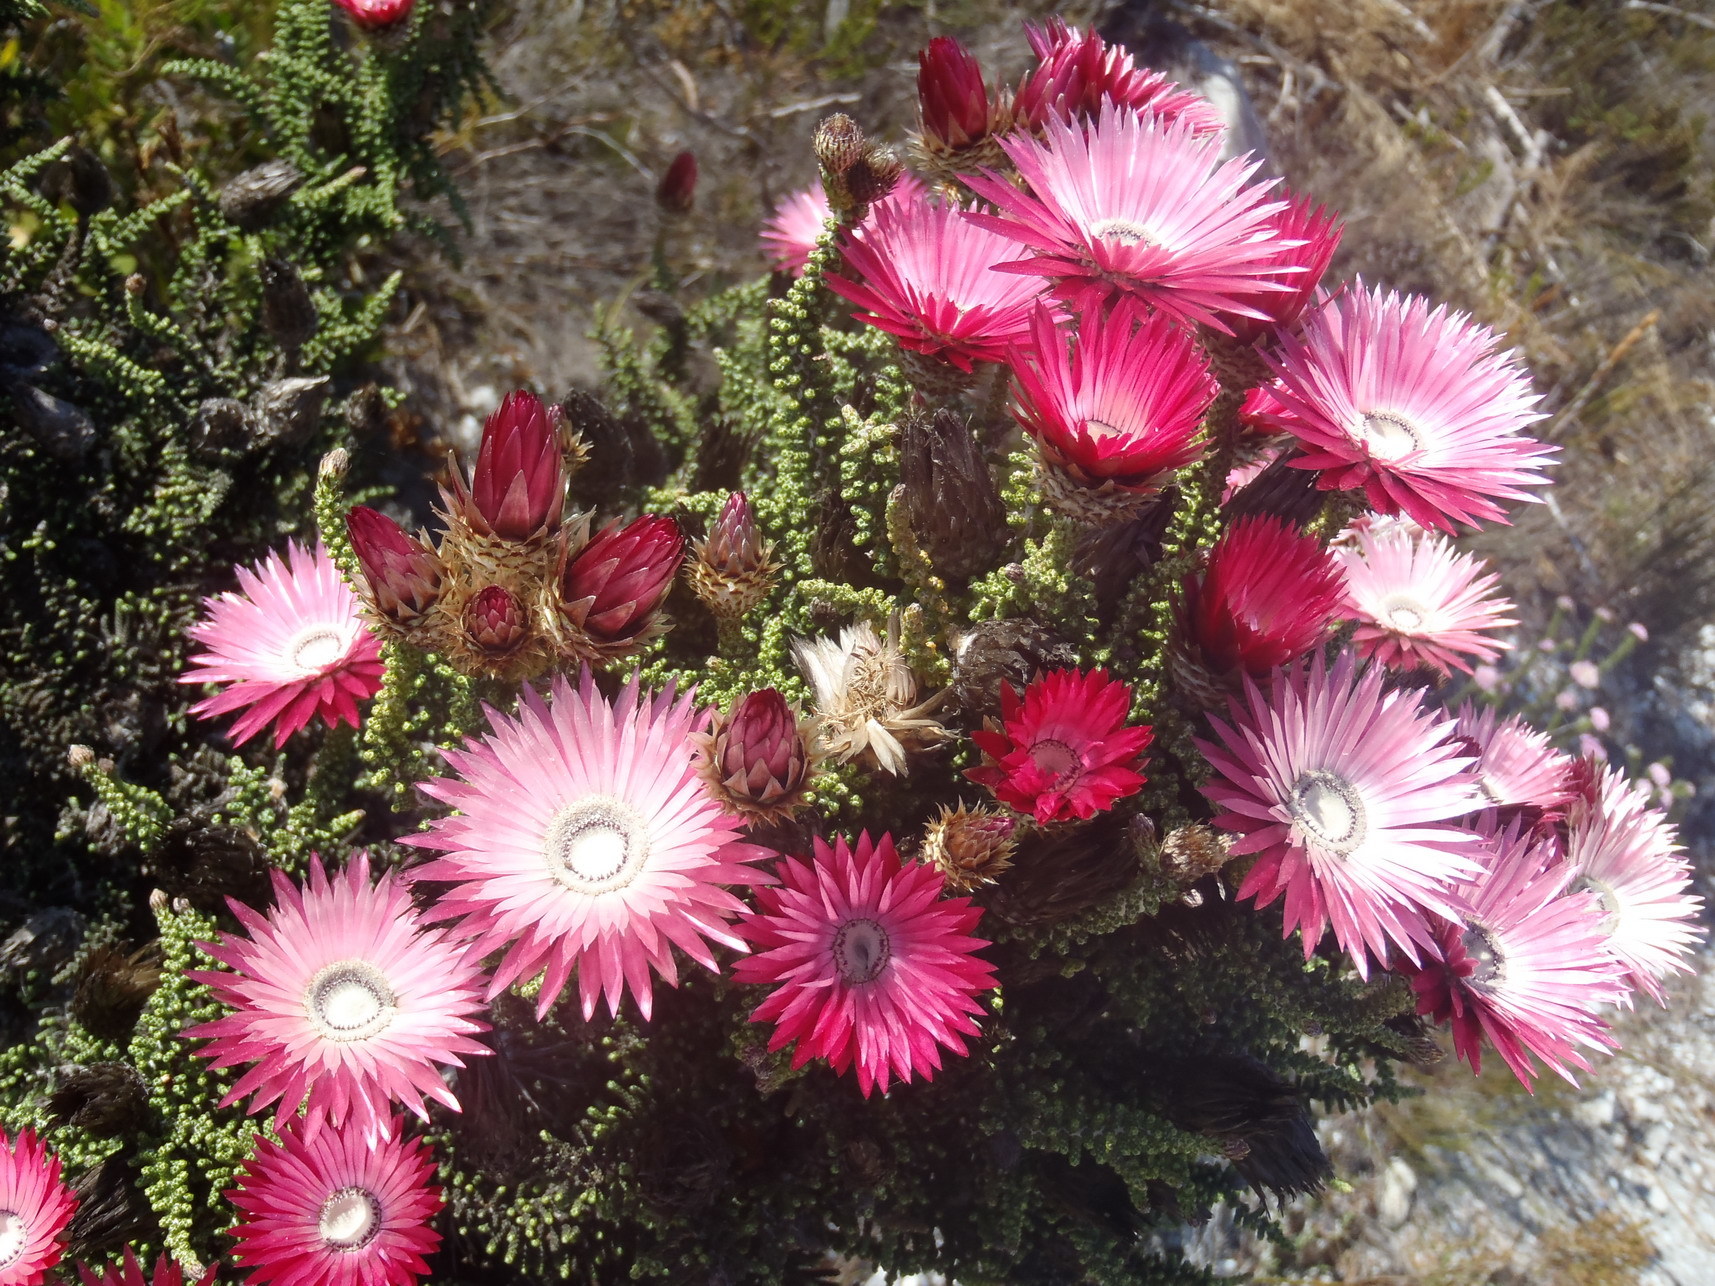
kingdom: Plantae
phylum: Tracheophyta
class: Magnoliopsida
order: Asterales
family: Asteraceae
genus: Phaenocoma
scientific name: Phaenocoma prolifera
